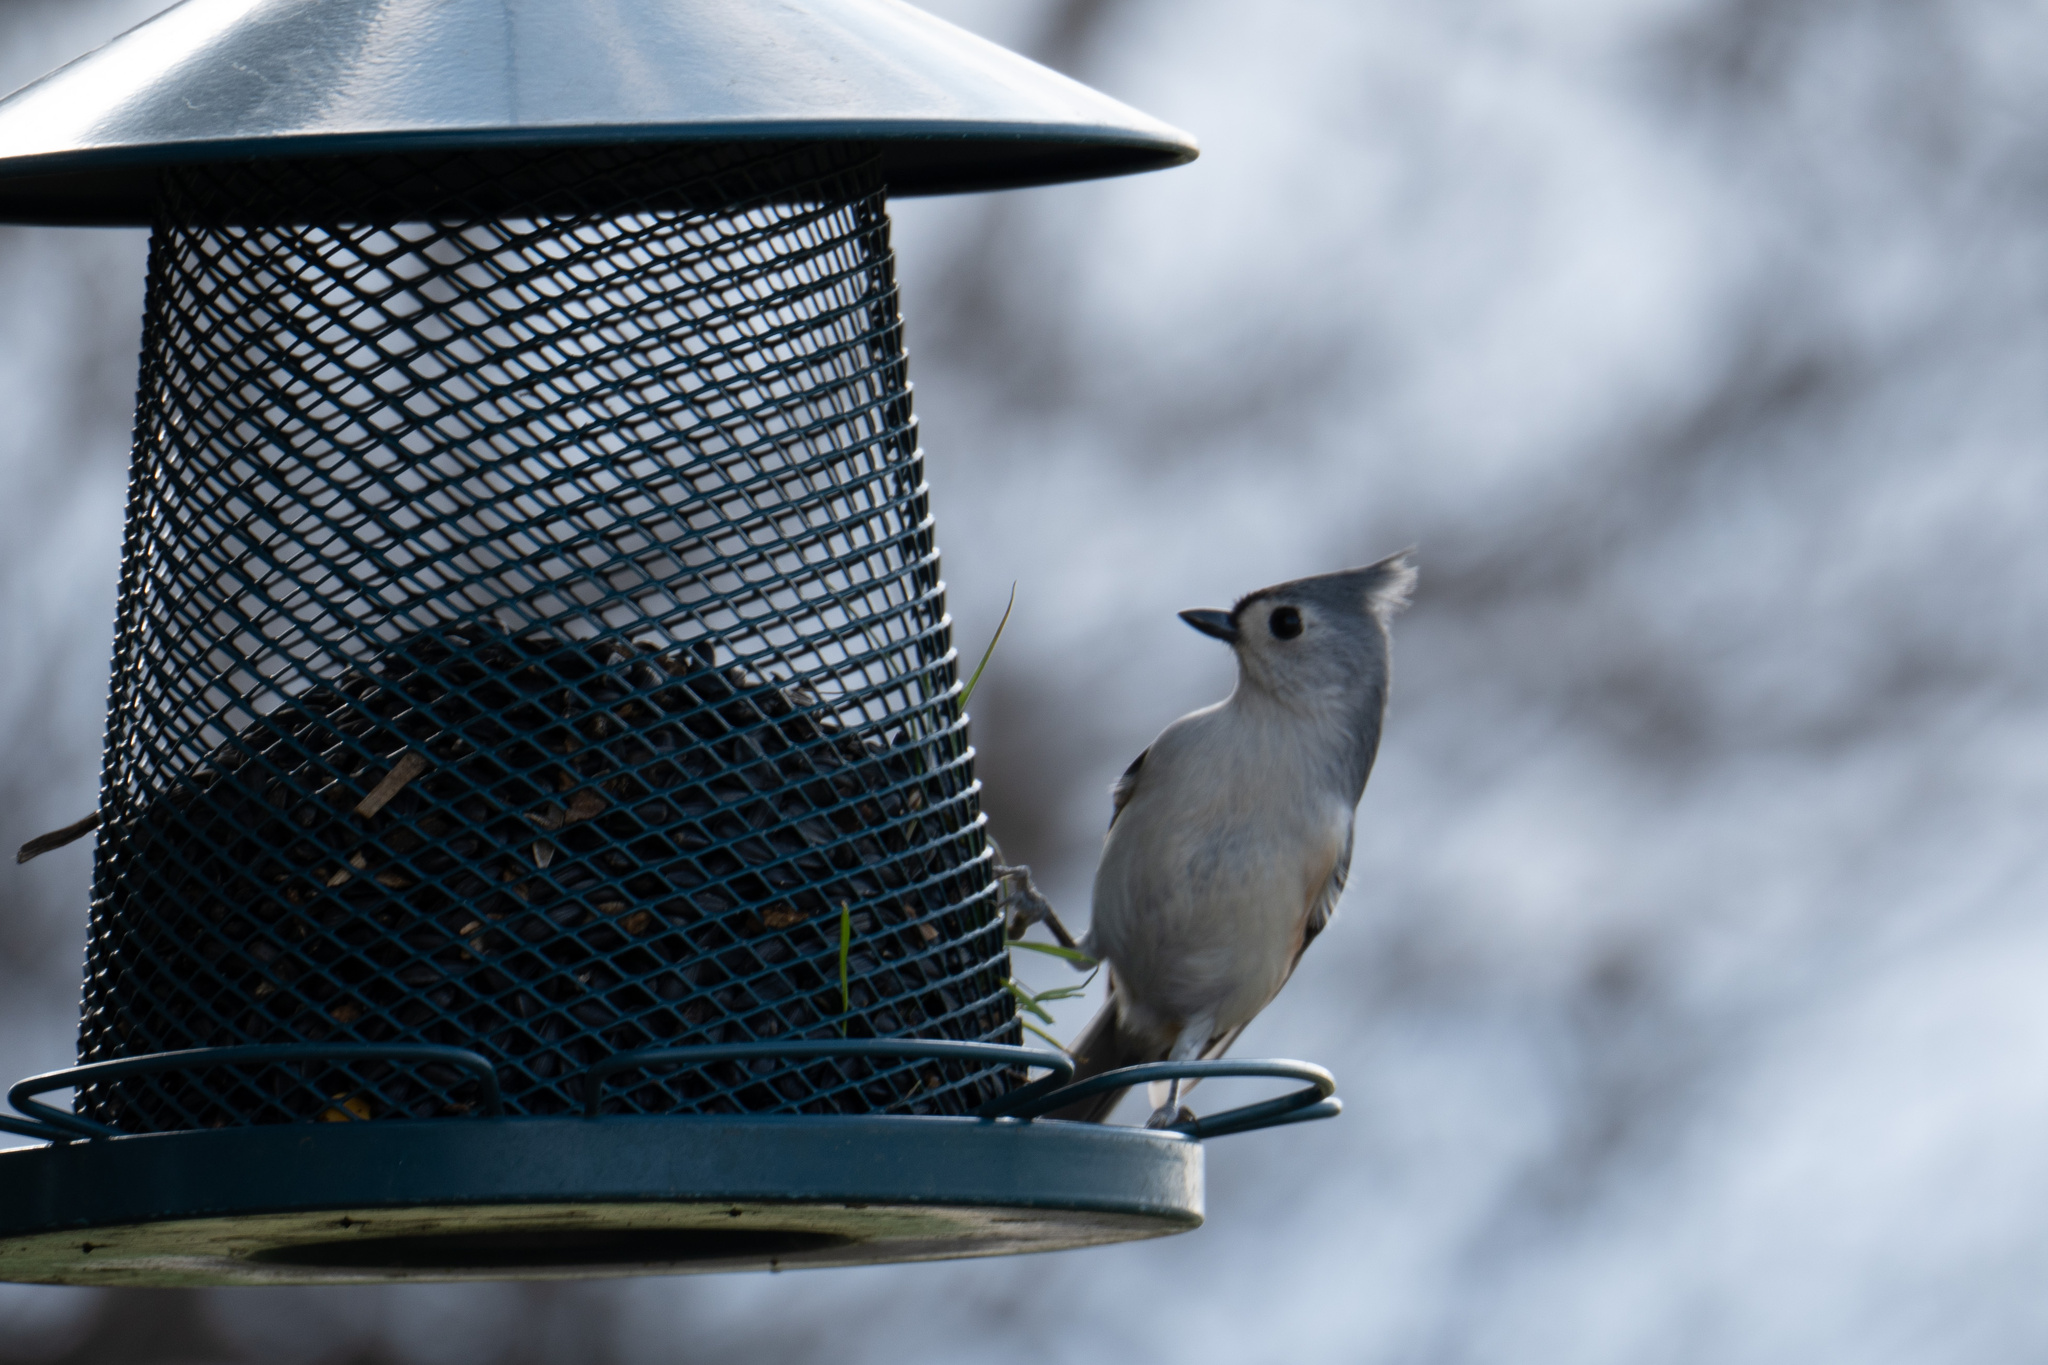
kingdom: Animalia
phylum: Chordata
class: Aves
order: Passeriformes
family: Paridae
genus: Baeolophus
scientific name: Baeolophus bicolor
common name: Tufted titmouse
